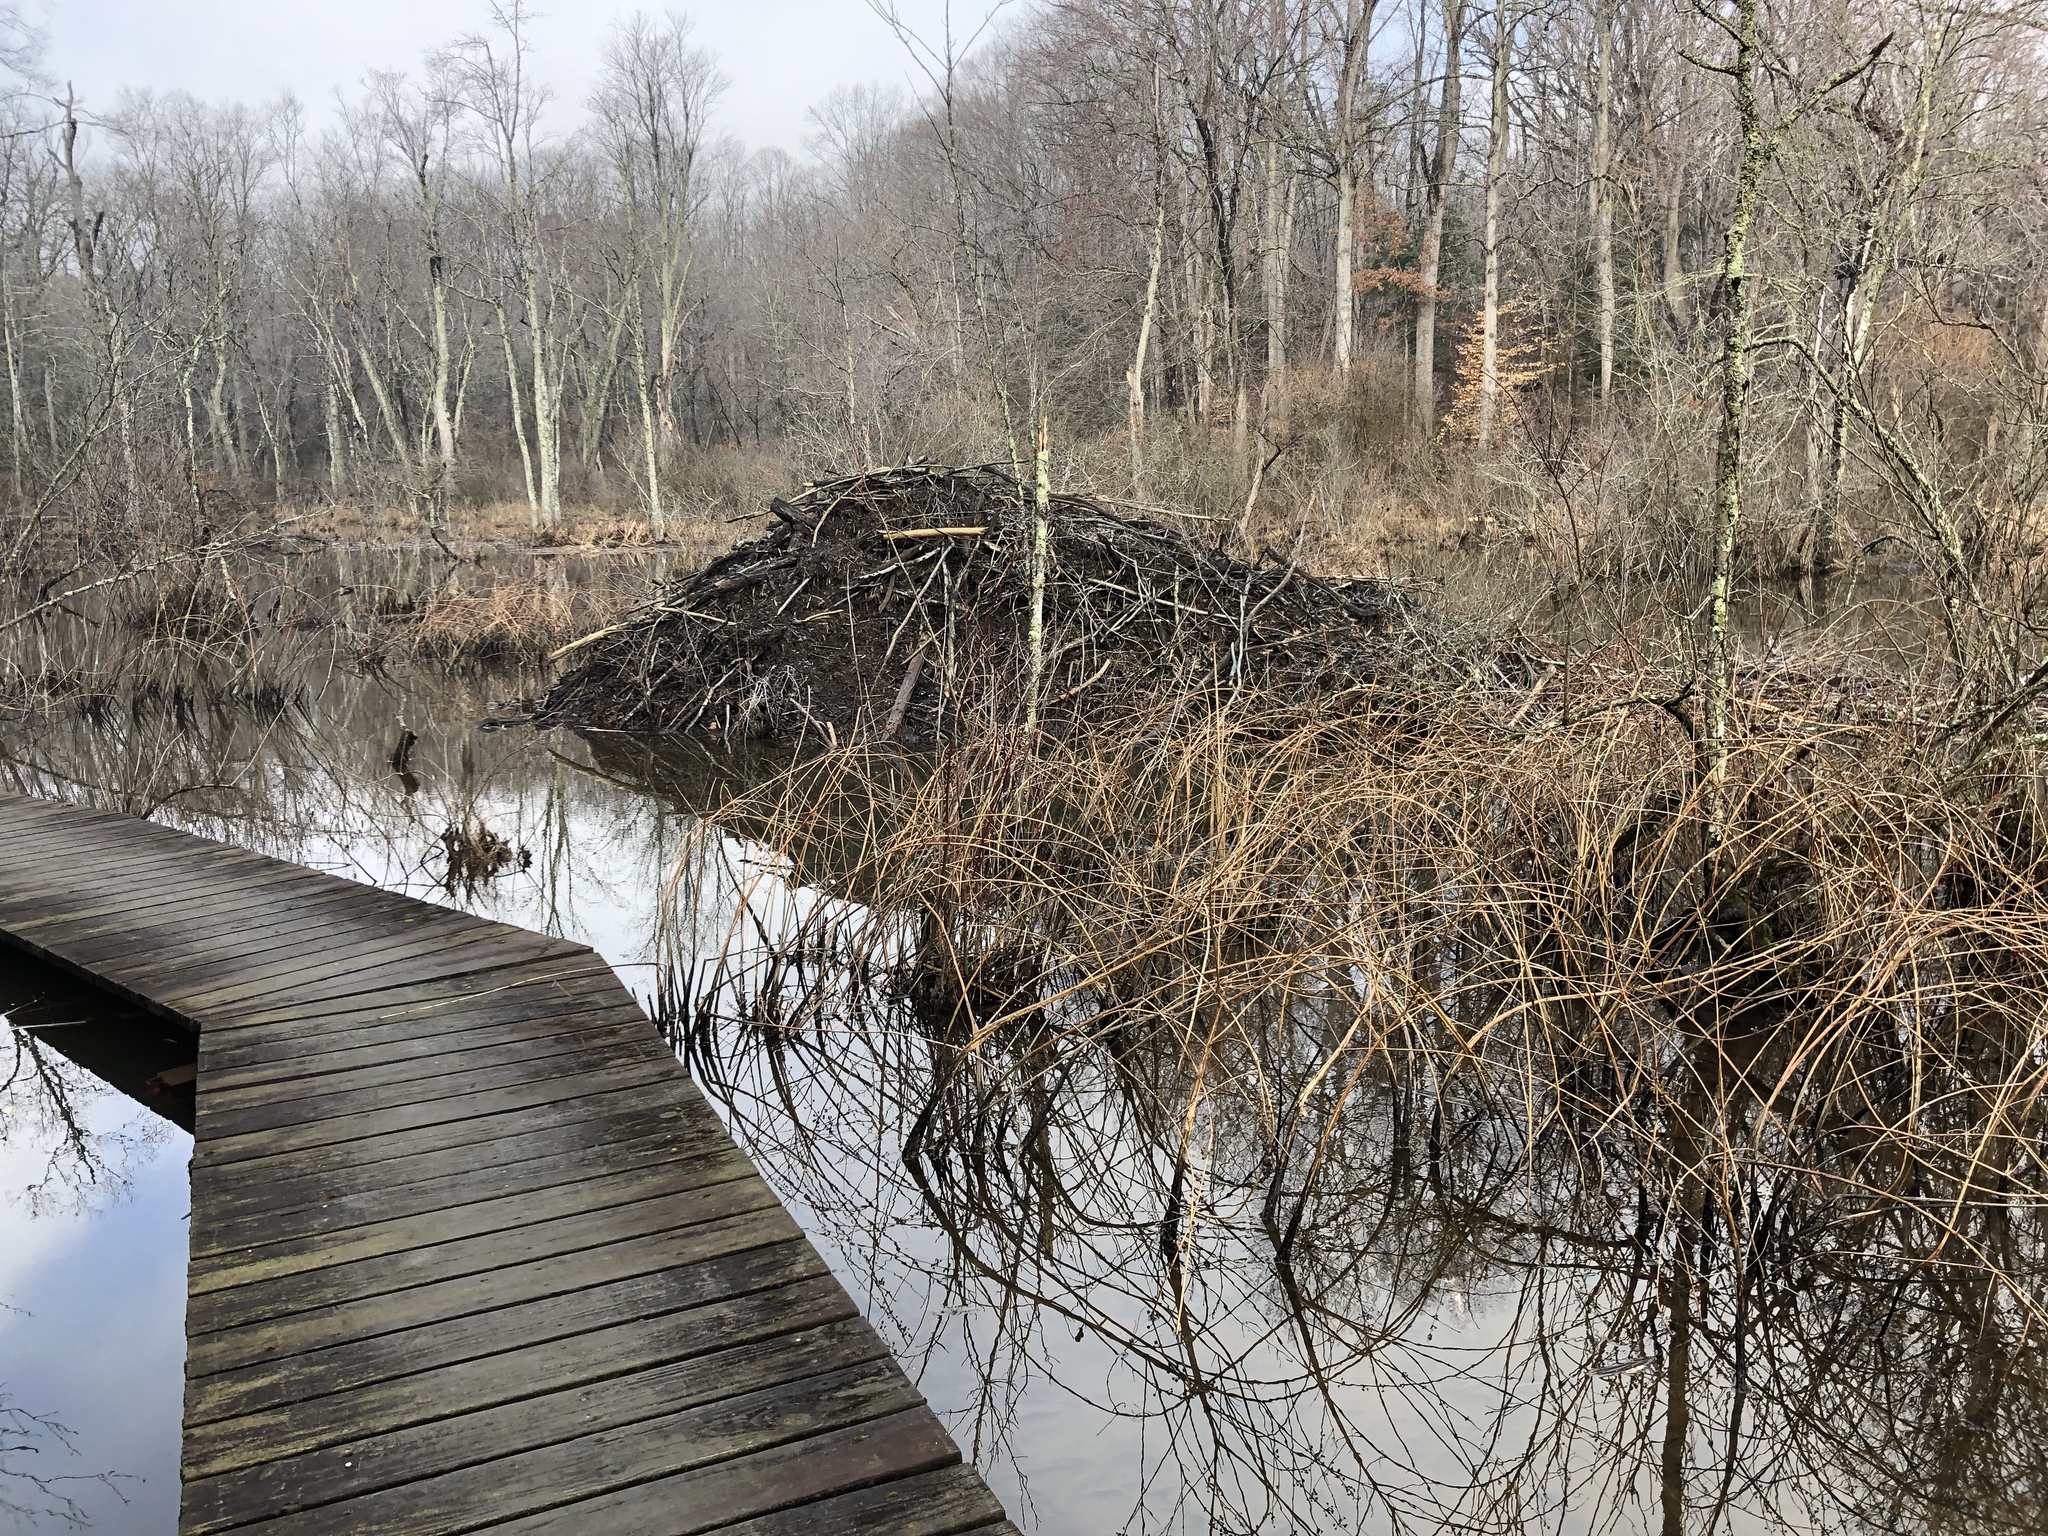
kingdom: Animalia
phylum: Chordata
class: Mammalia
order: Rodentia
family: Castoridae
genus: Castor
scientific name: Castor canadensis
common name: American beaver
